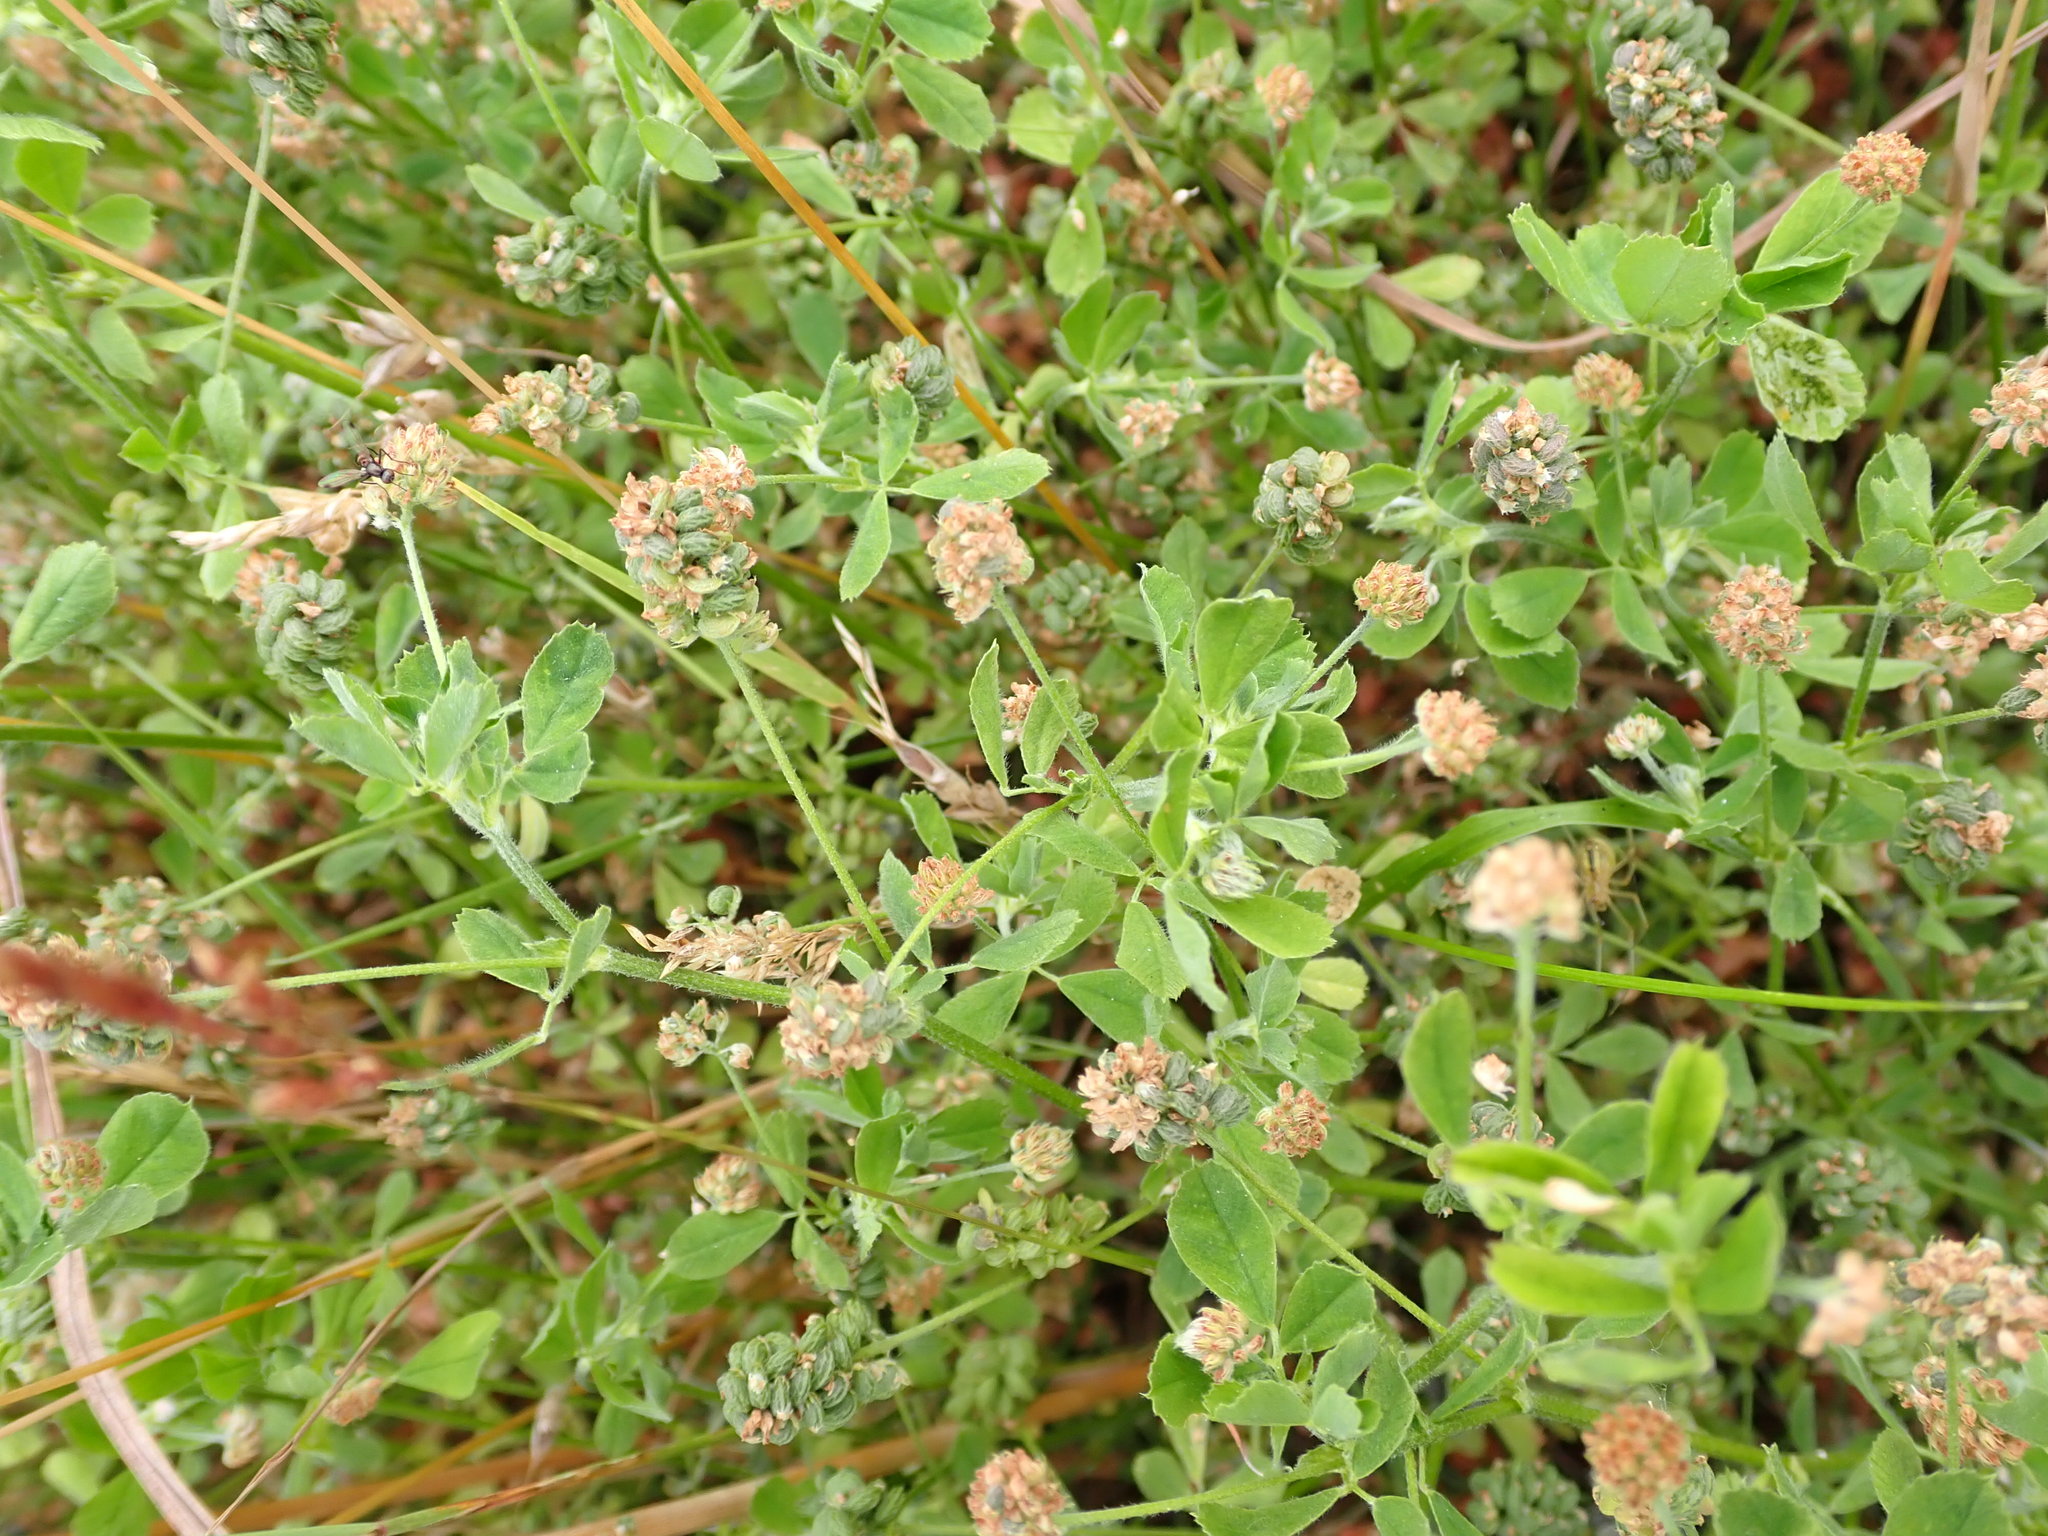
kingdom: Plantae
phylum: Tracheophyta
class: Magnoliopsida
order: Fabales
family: Fabaceae
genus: Medicago
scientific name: Medicago lupulina
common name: Black medick
